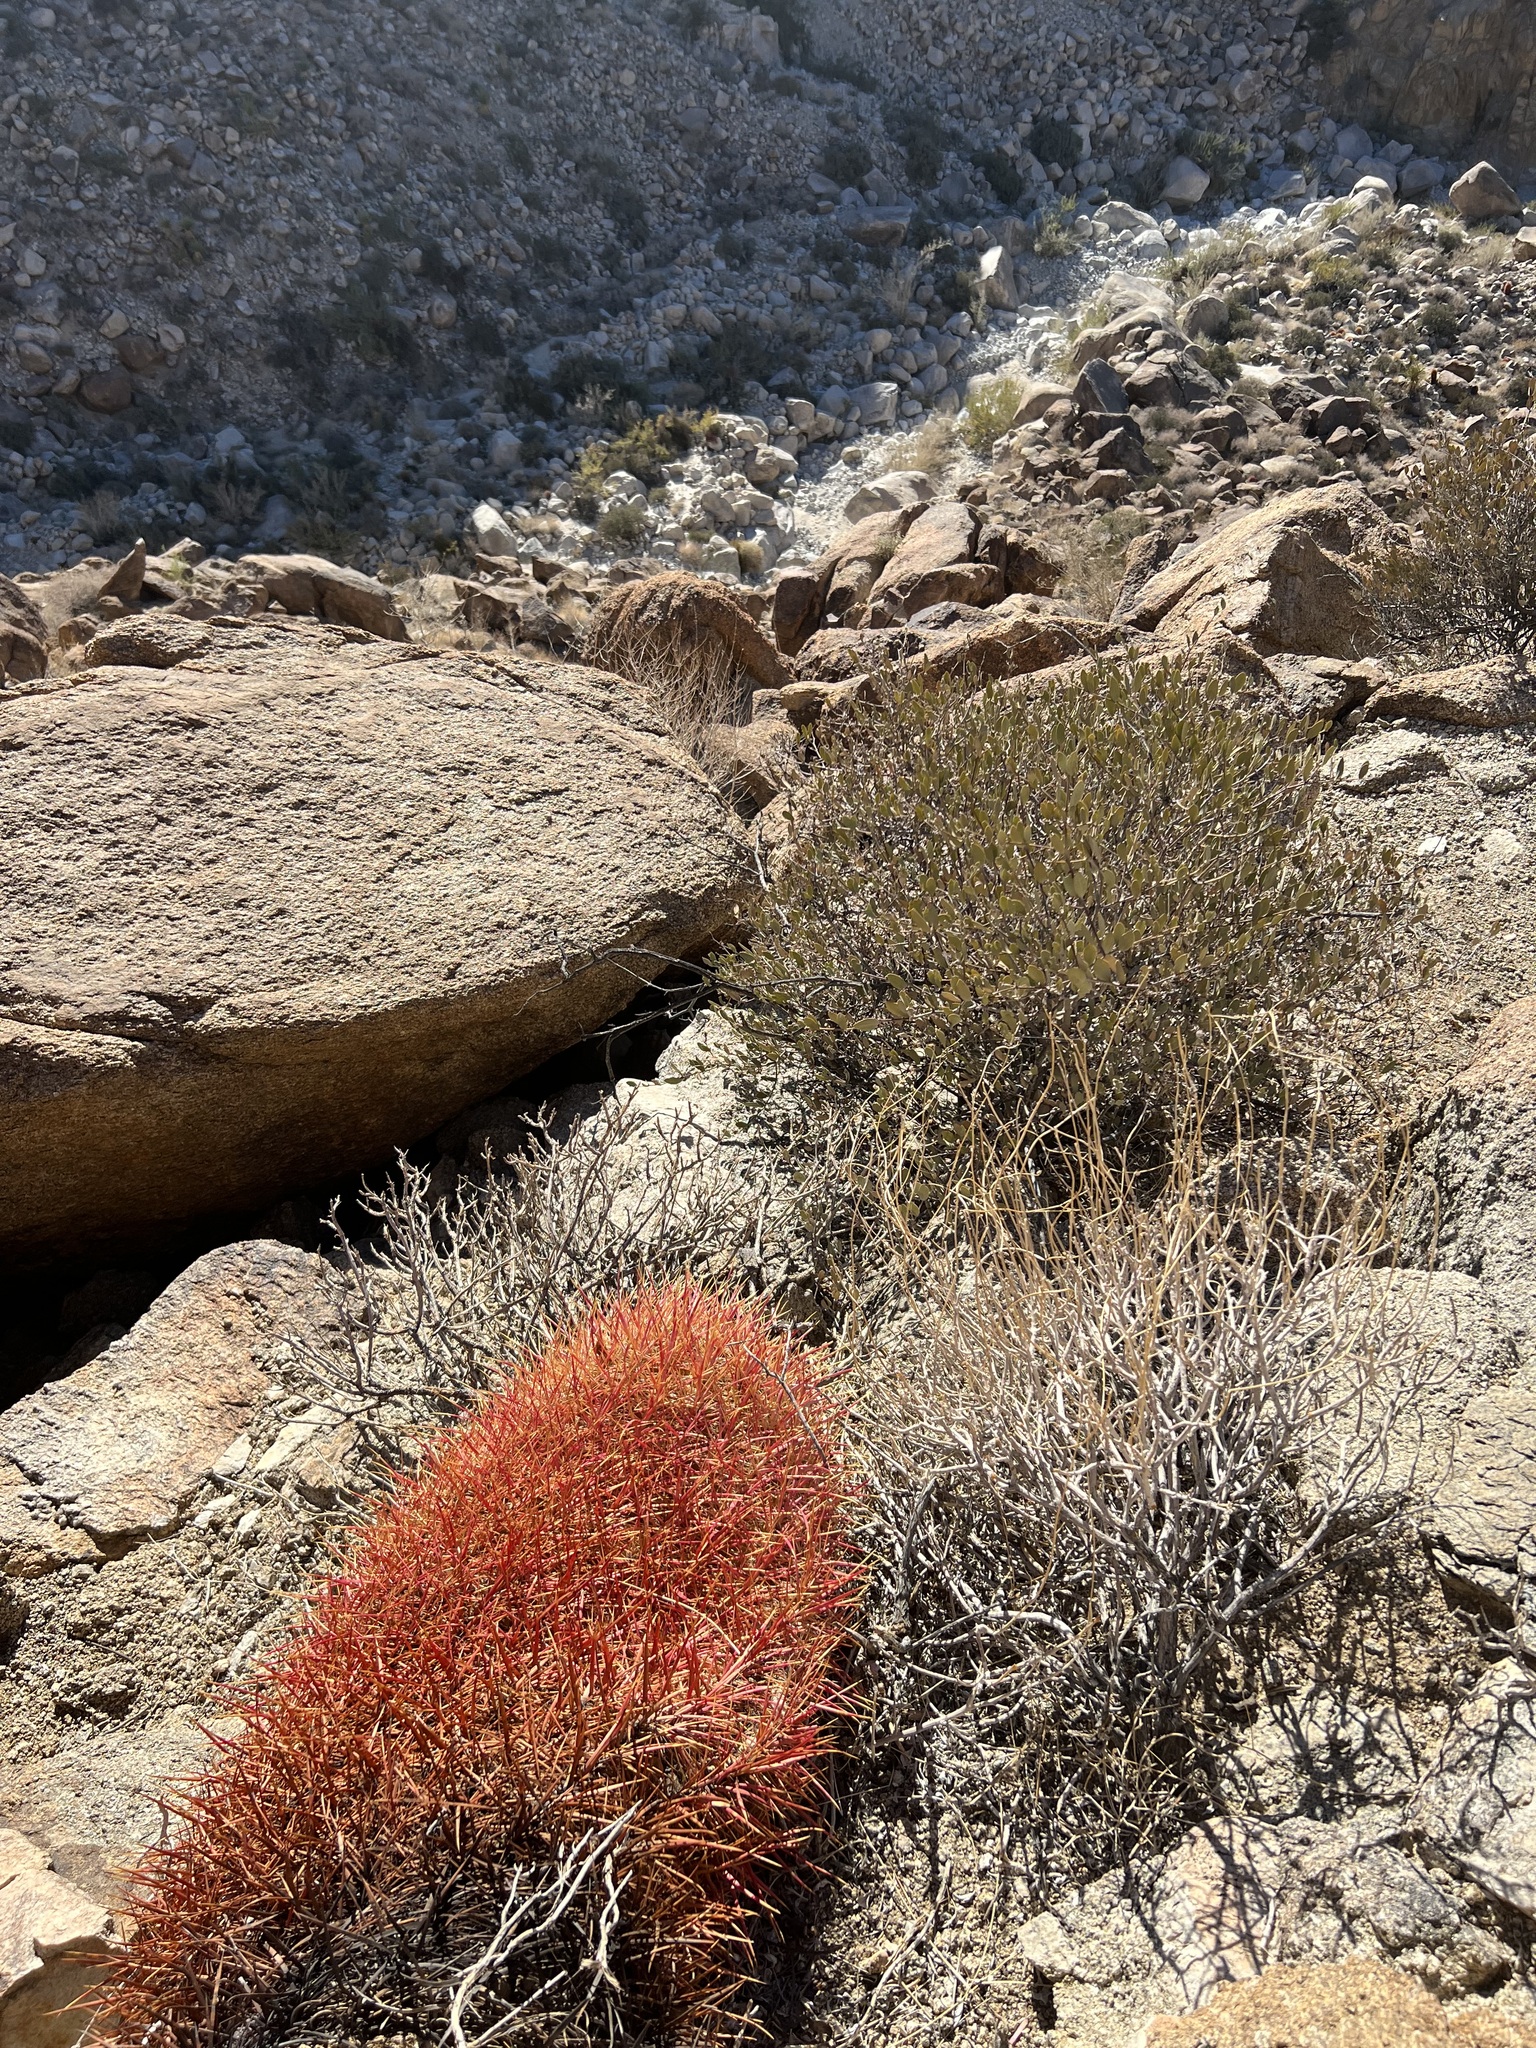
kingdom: Plantae
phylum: Tracheophyta
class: Magnoliopsida
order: Caryophyllales
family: Cactaceae
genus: Ferocactus
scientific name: Ferocactus cylindraceus
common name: California barrel cactus
